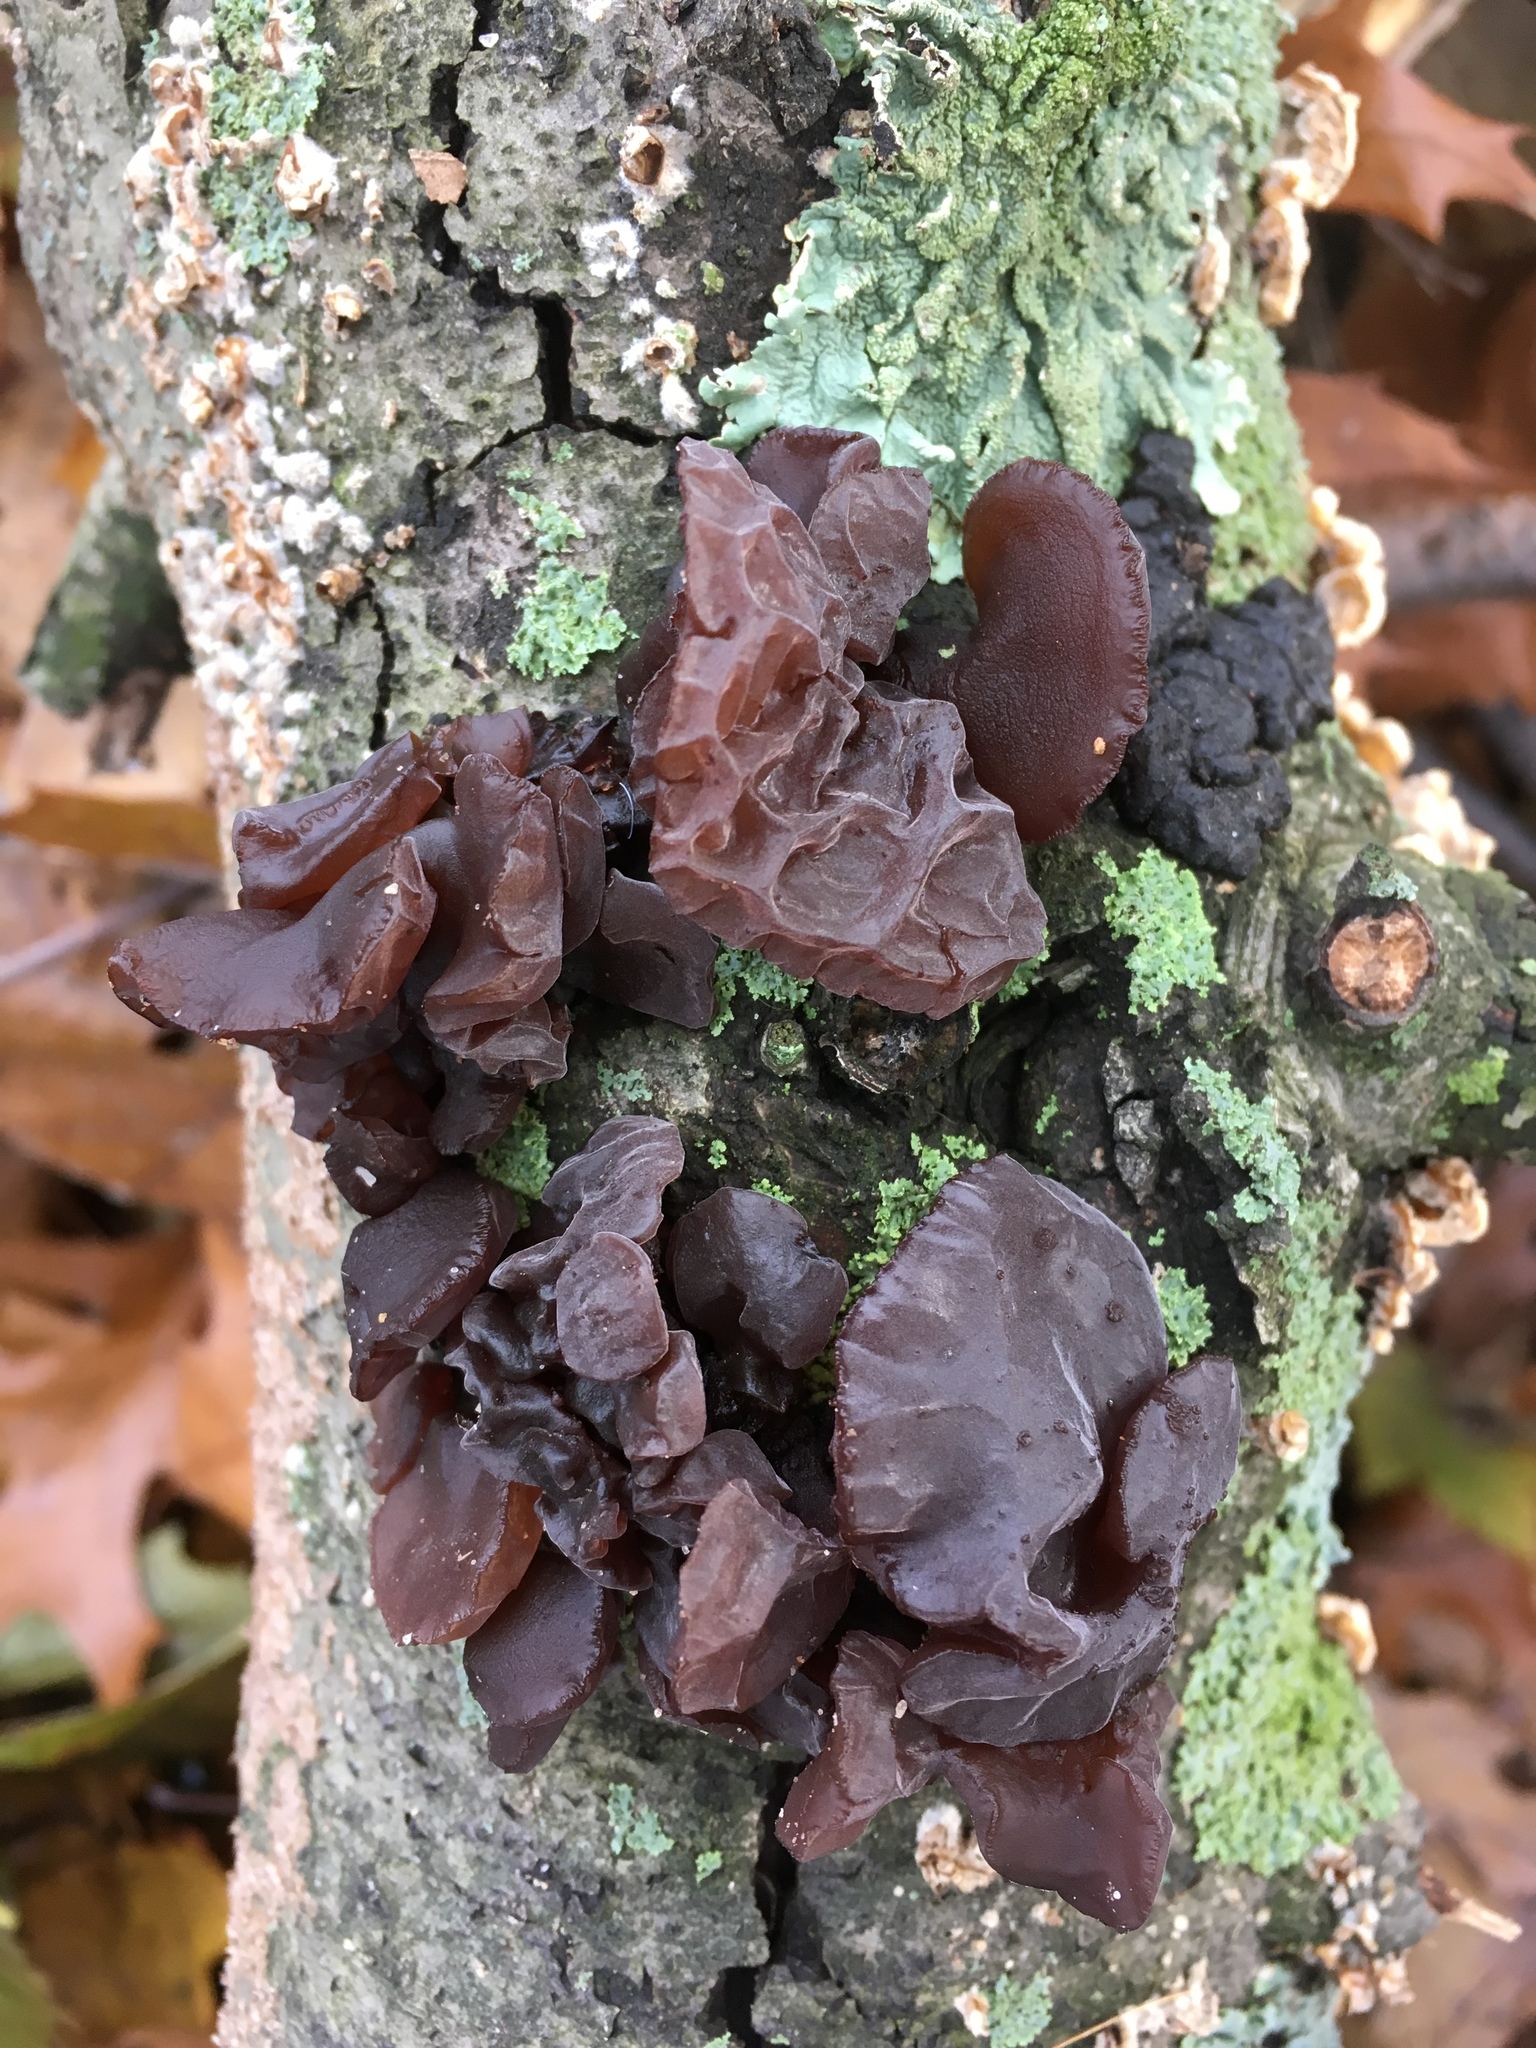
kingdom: Fungi
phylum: Basidiomycota
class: Agaricomycetes
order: Auriculariales
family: Auriculariaceae
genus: Exidia
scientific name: Exidia
